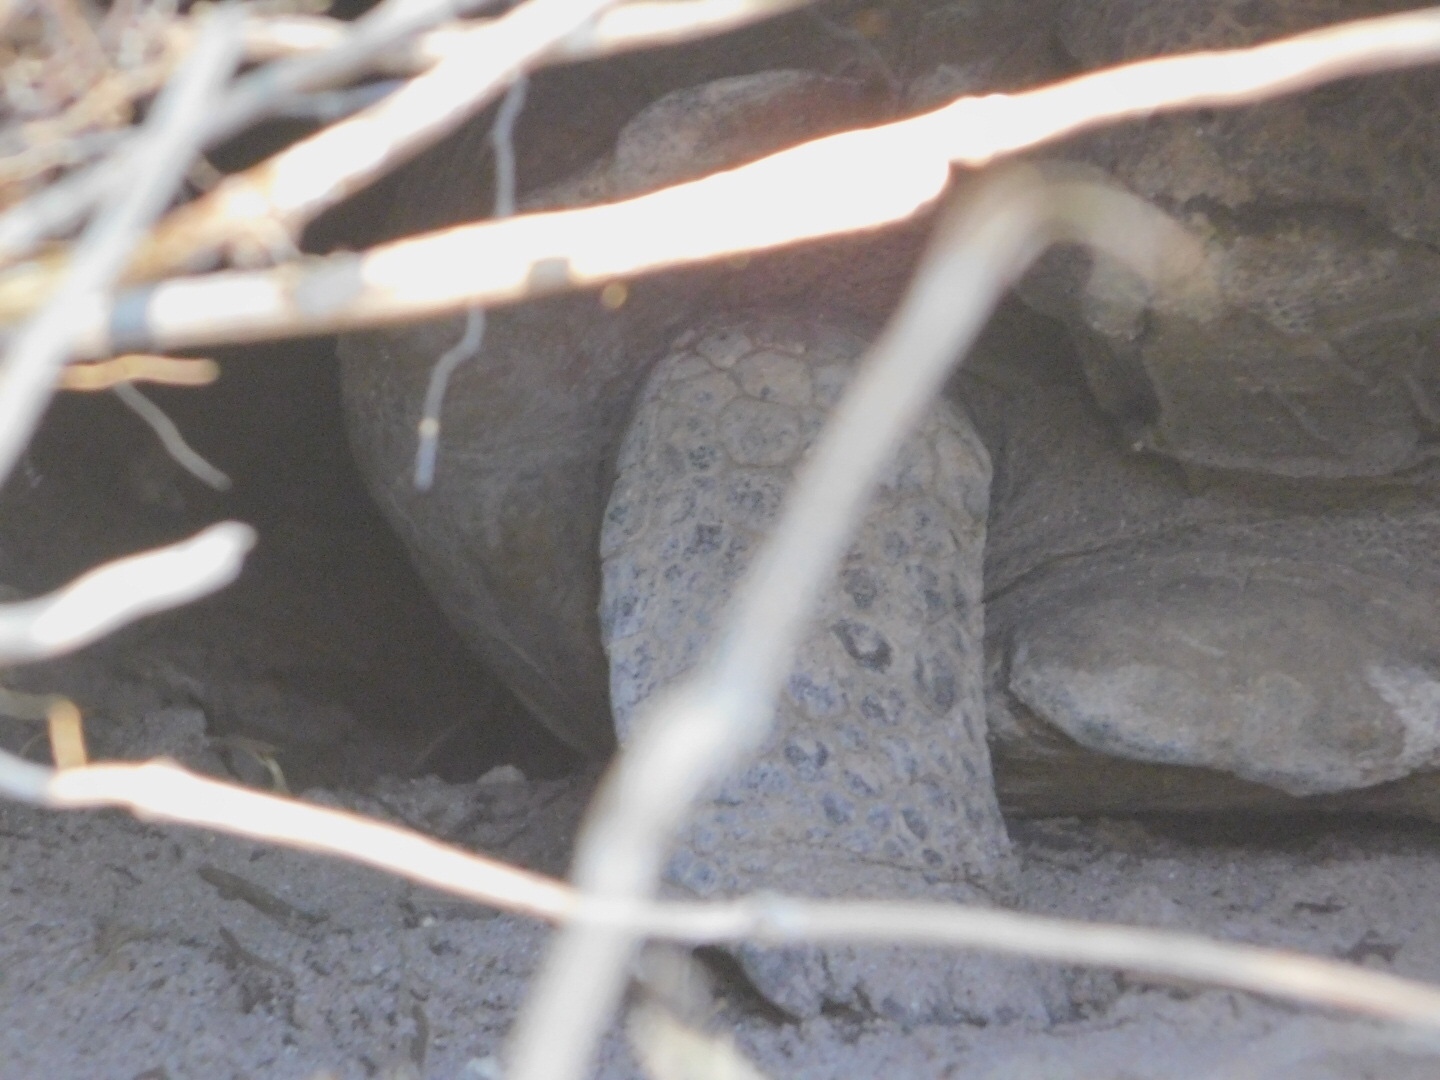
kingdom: Animalia
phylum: Chordata
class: Testudines
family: Testudinidae
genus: Gopherus
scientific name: Gopherus polyphemus
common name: Florida gopher tortoise
